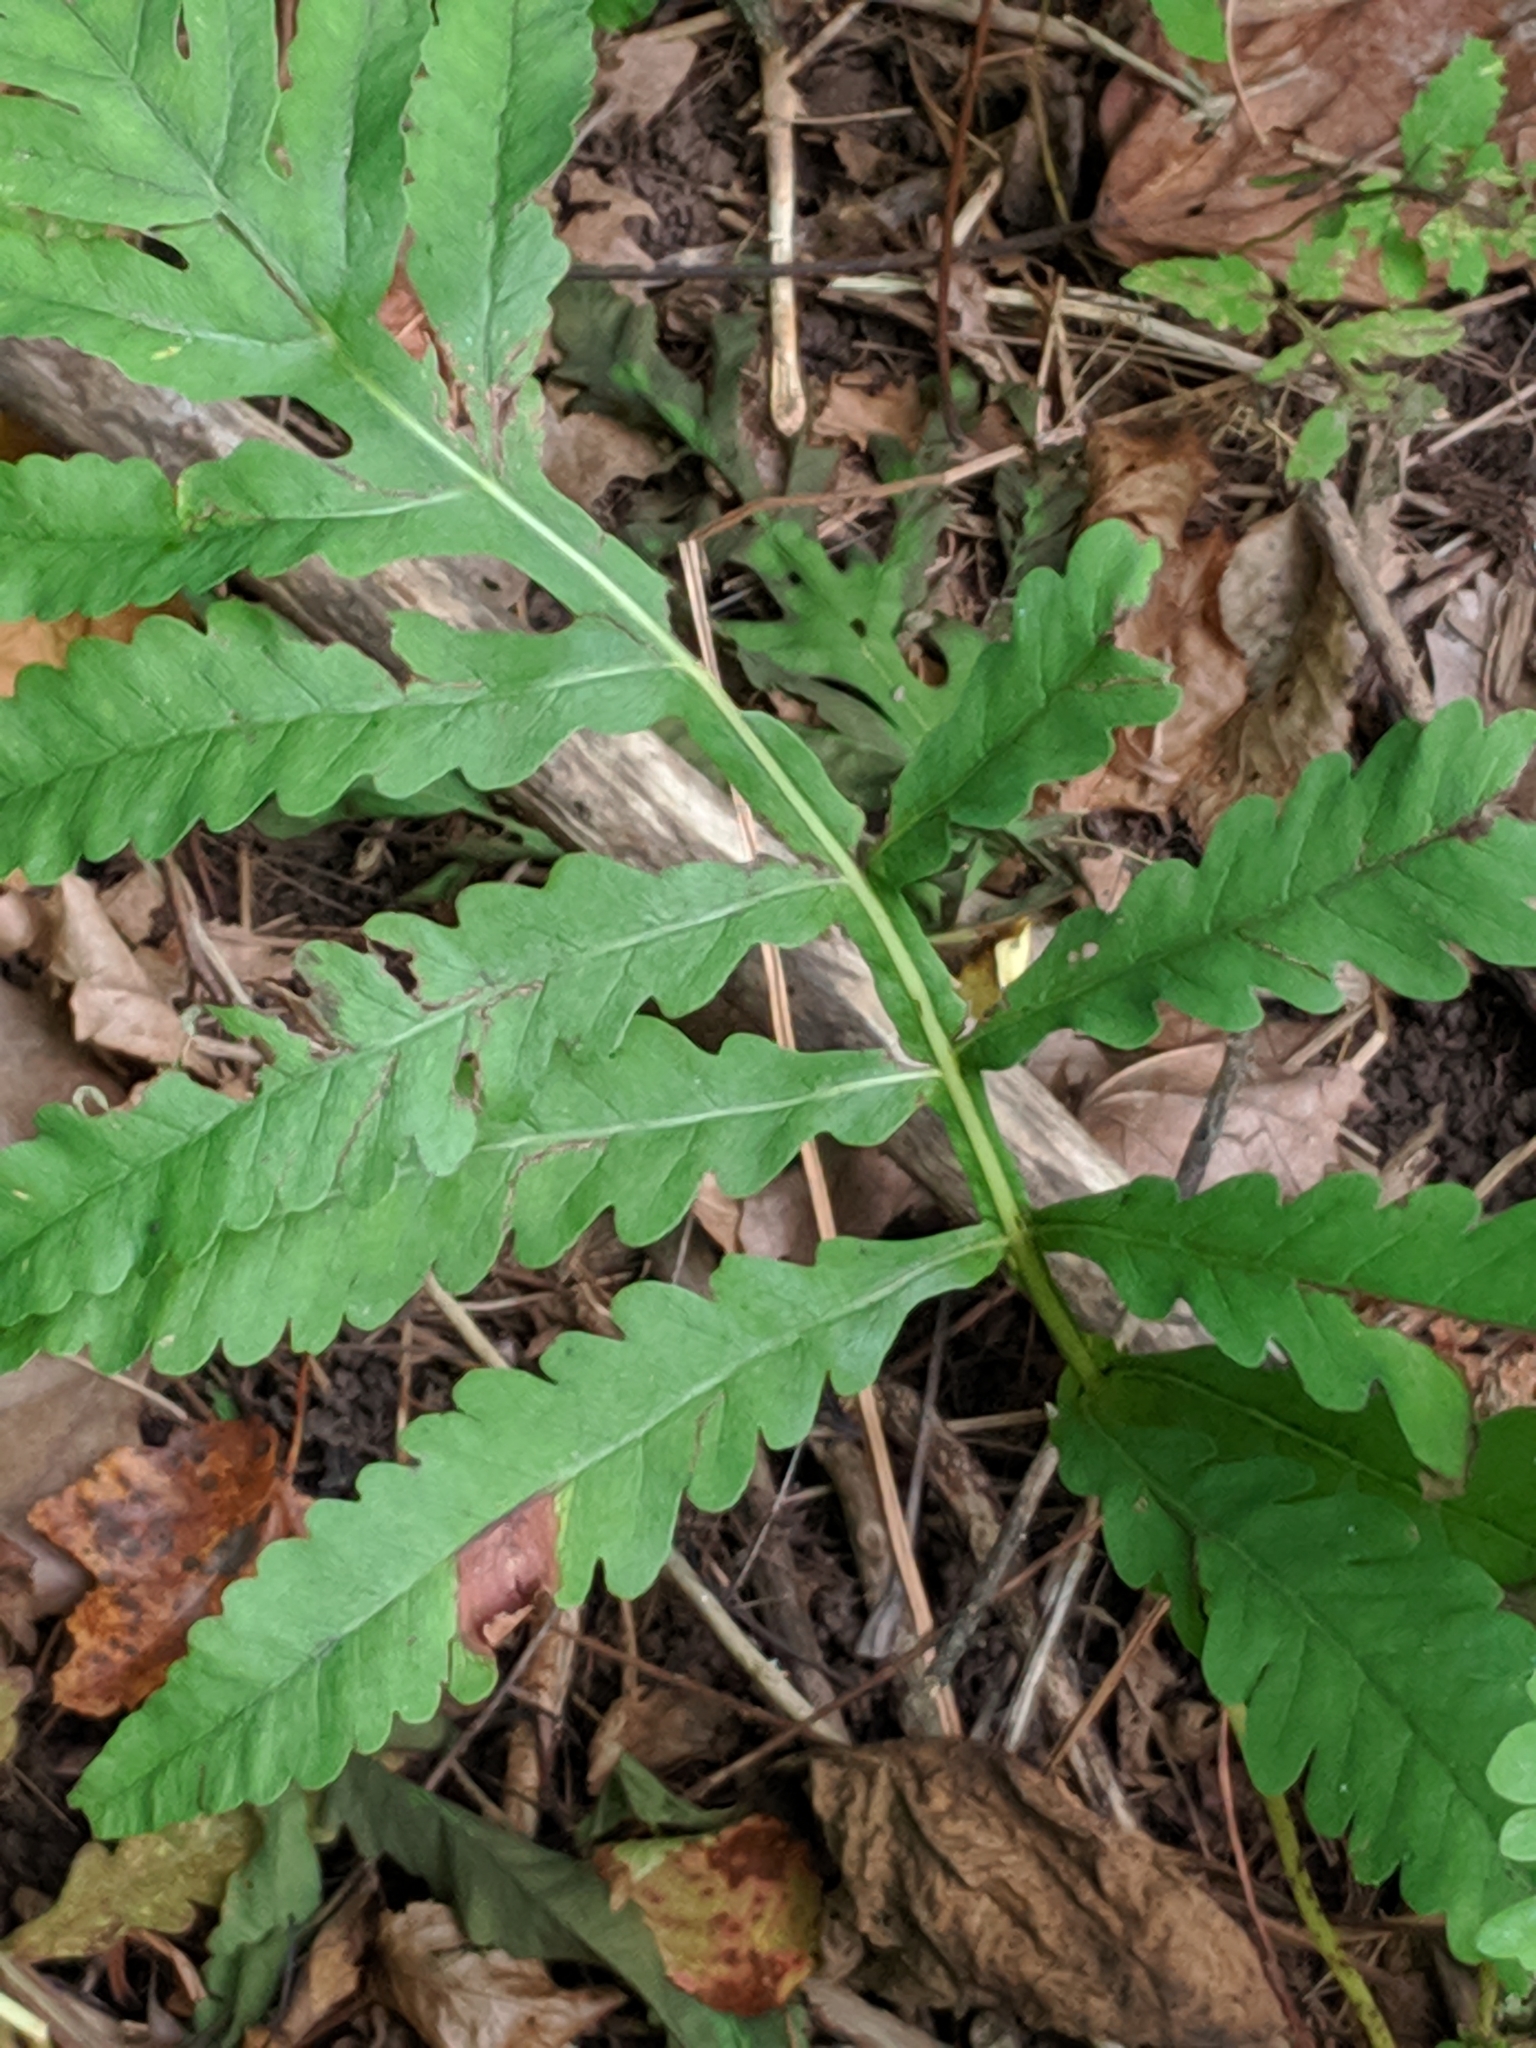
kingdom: Plantae
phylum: Tracheophyta
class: Polypodiopsida
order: Polypodiales
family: Onocleaceae
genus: Onoclea
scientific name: Onoclea sensibilis
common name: Sensitive fern
